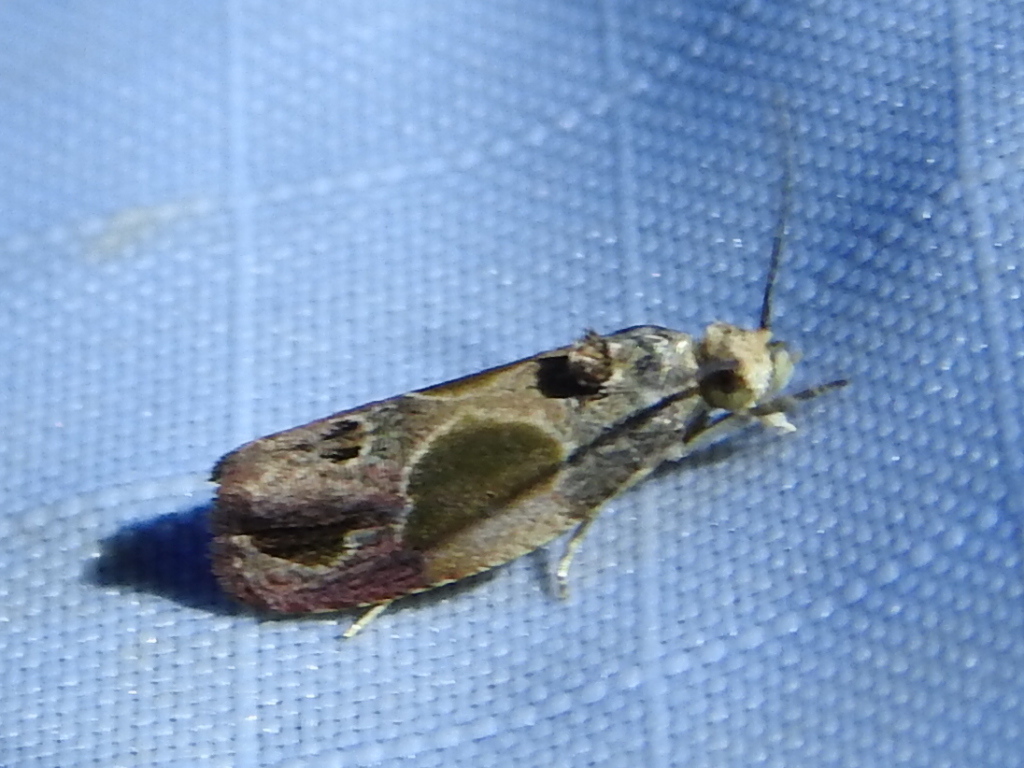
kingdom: Animalia
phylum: Arthropoda
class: Insecta
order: Lepidoptera
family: Tortricidae
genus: Eumarozia
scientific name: Eumarozia malachitana
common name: Sculptured moth
